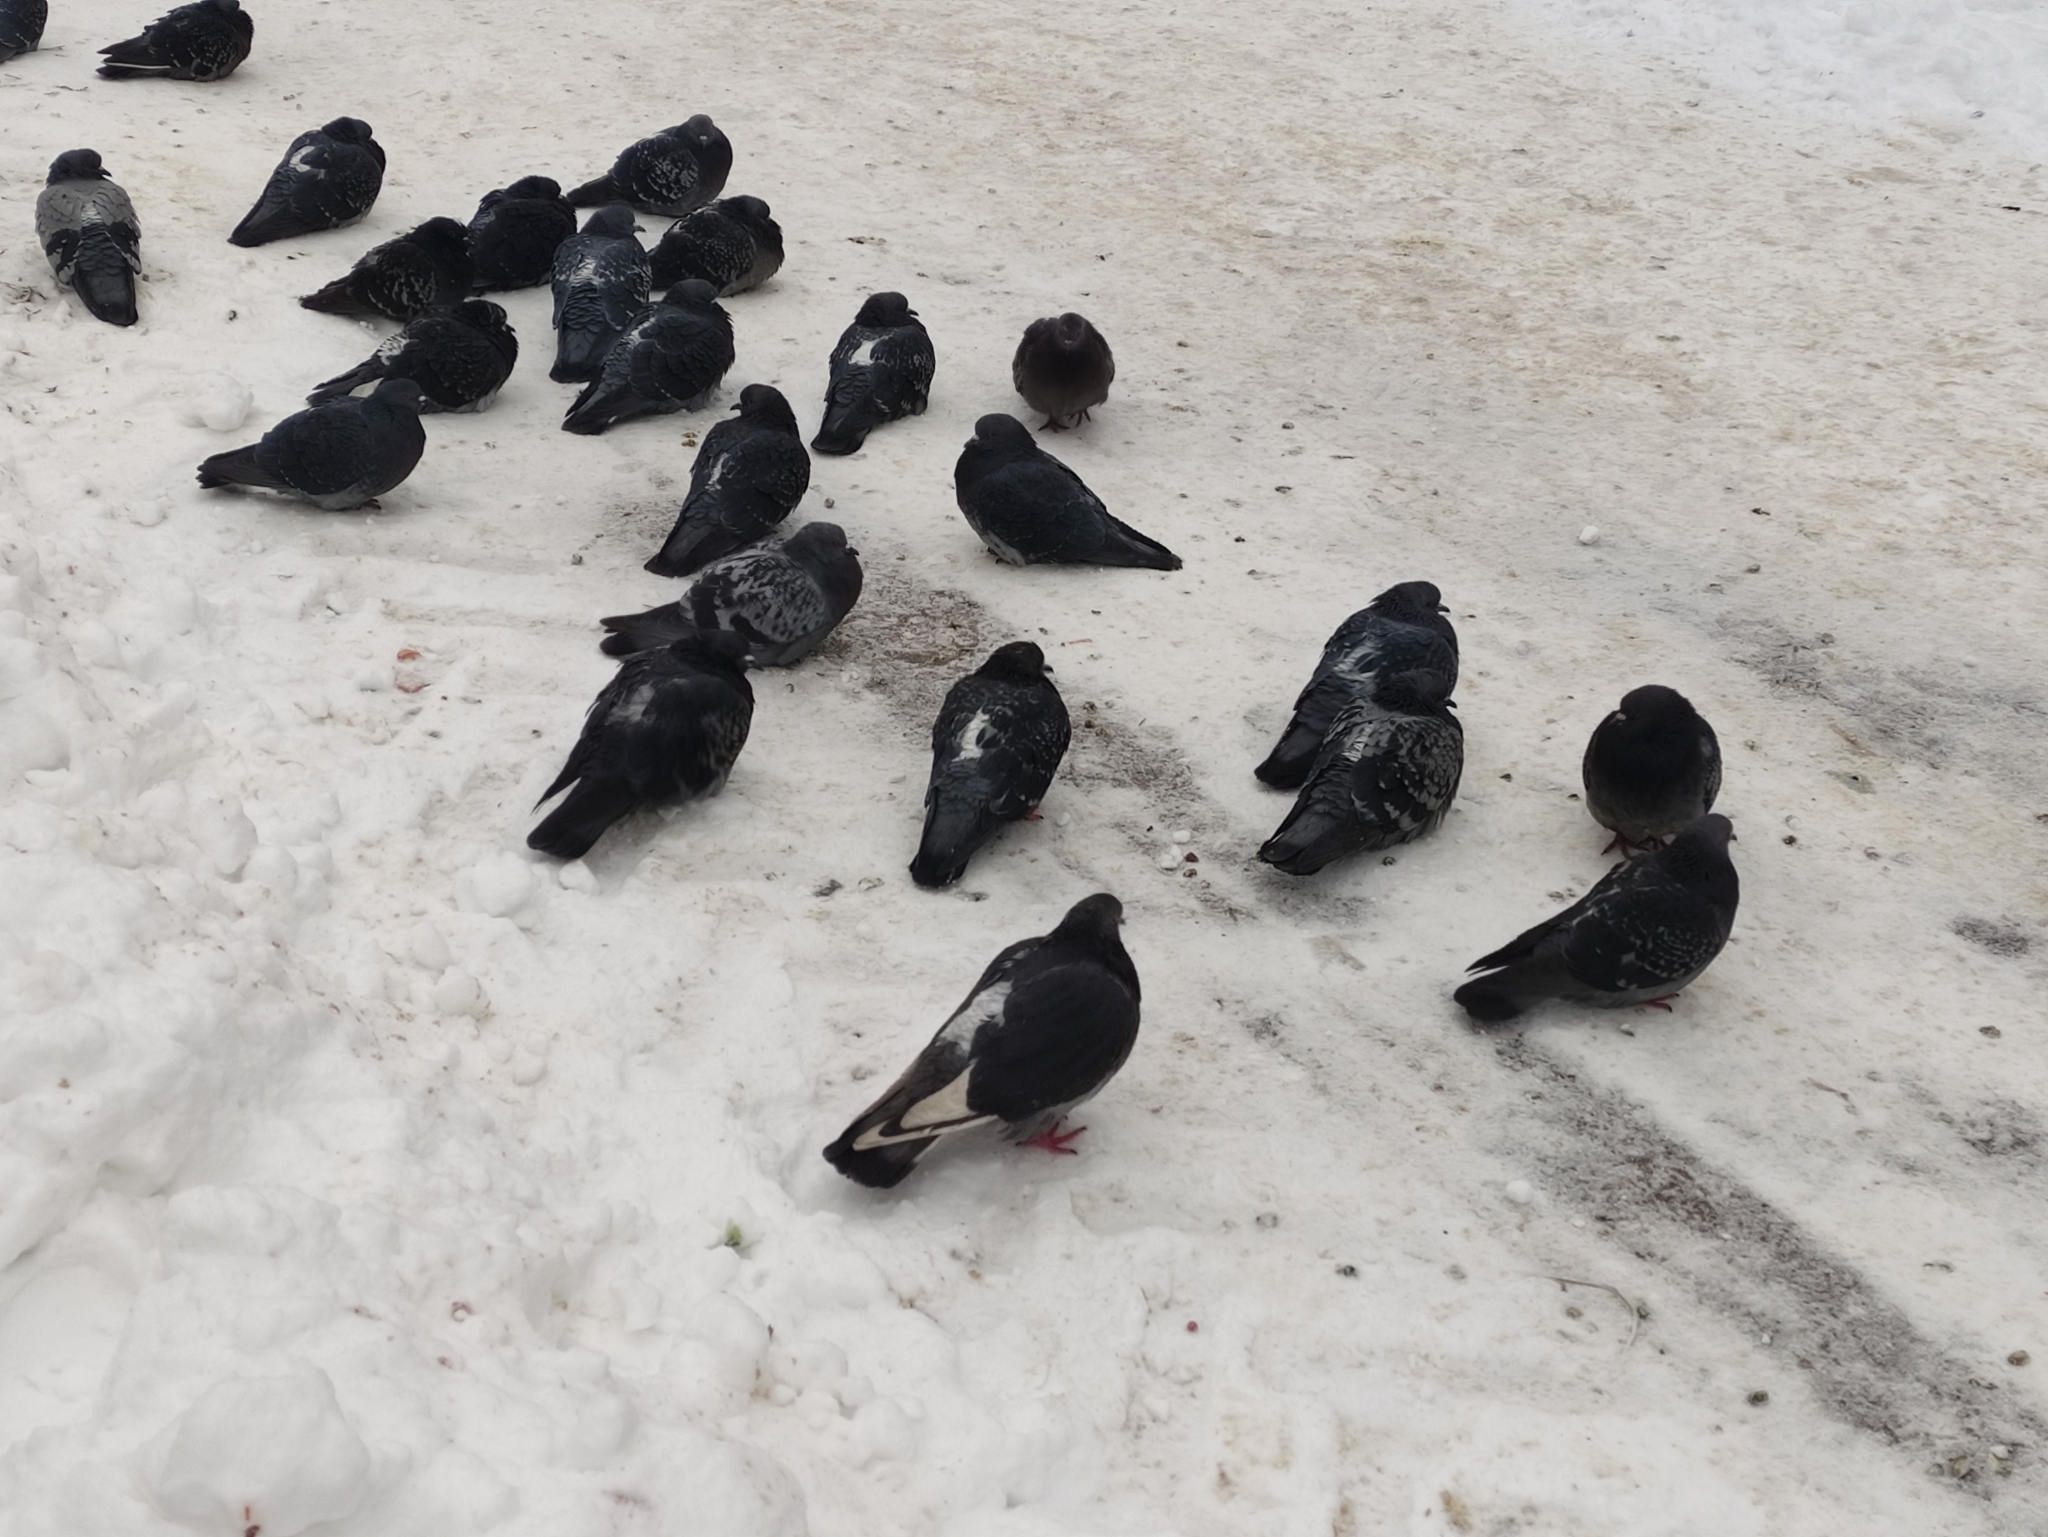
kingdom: Animalia
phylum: Chordata
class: Aves
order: Columbiformes
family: Columbidae
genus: Columba
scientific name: Columba livia
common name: Rock pigeon
